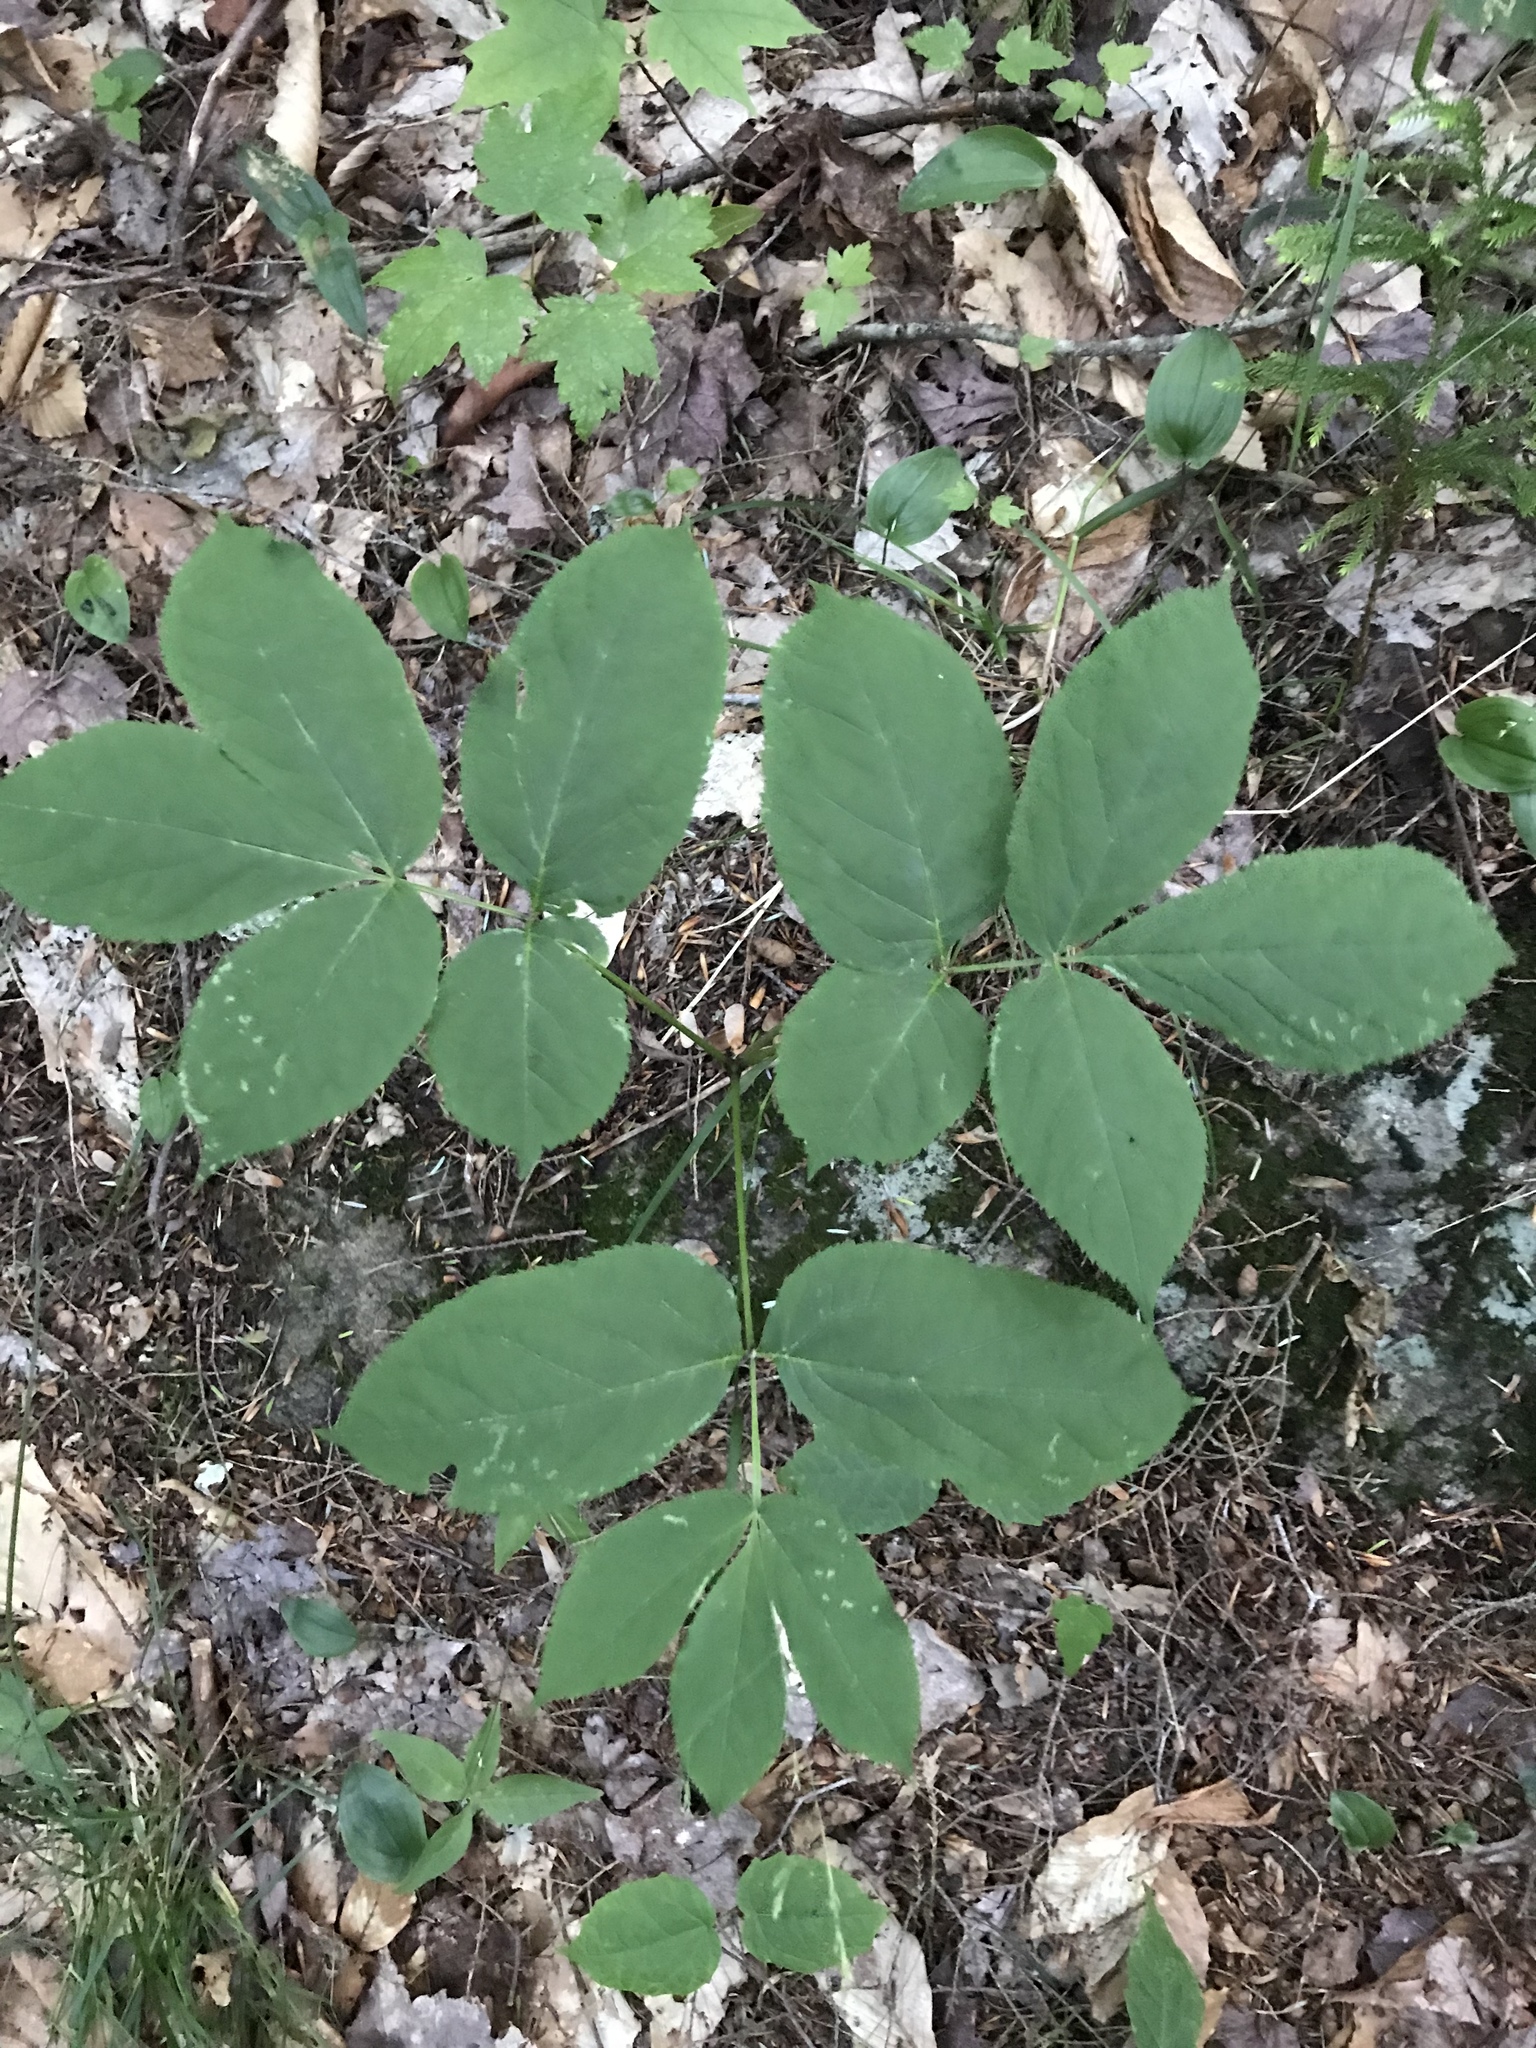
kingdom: Plantae
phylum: Tracheophyta
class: Magnoliopsida
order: Apiales
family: Araliaceae
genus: Aralia
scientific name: Aralia nudicaulis
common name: Wild sarsaparilla
